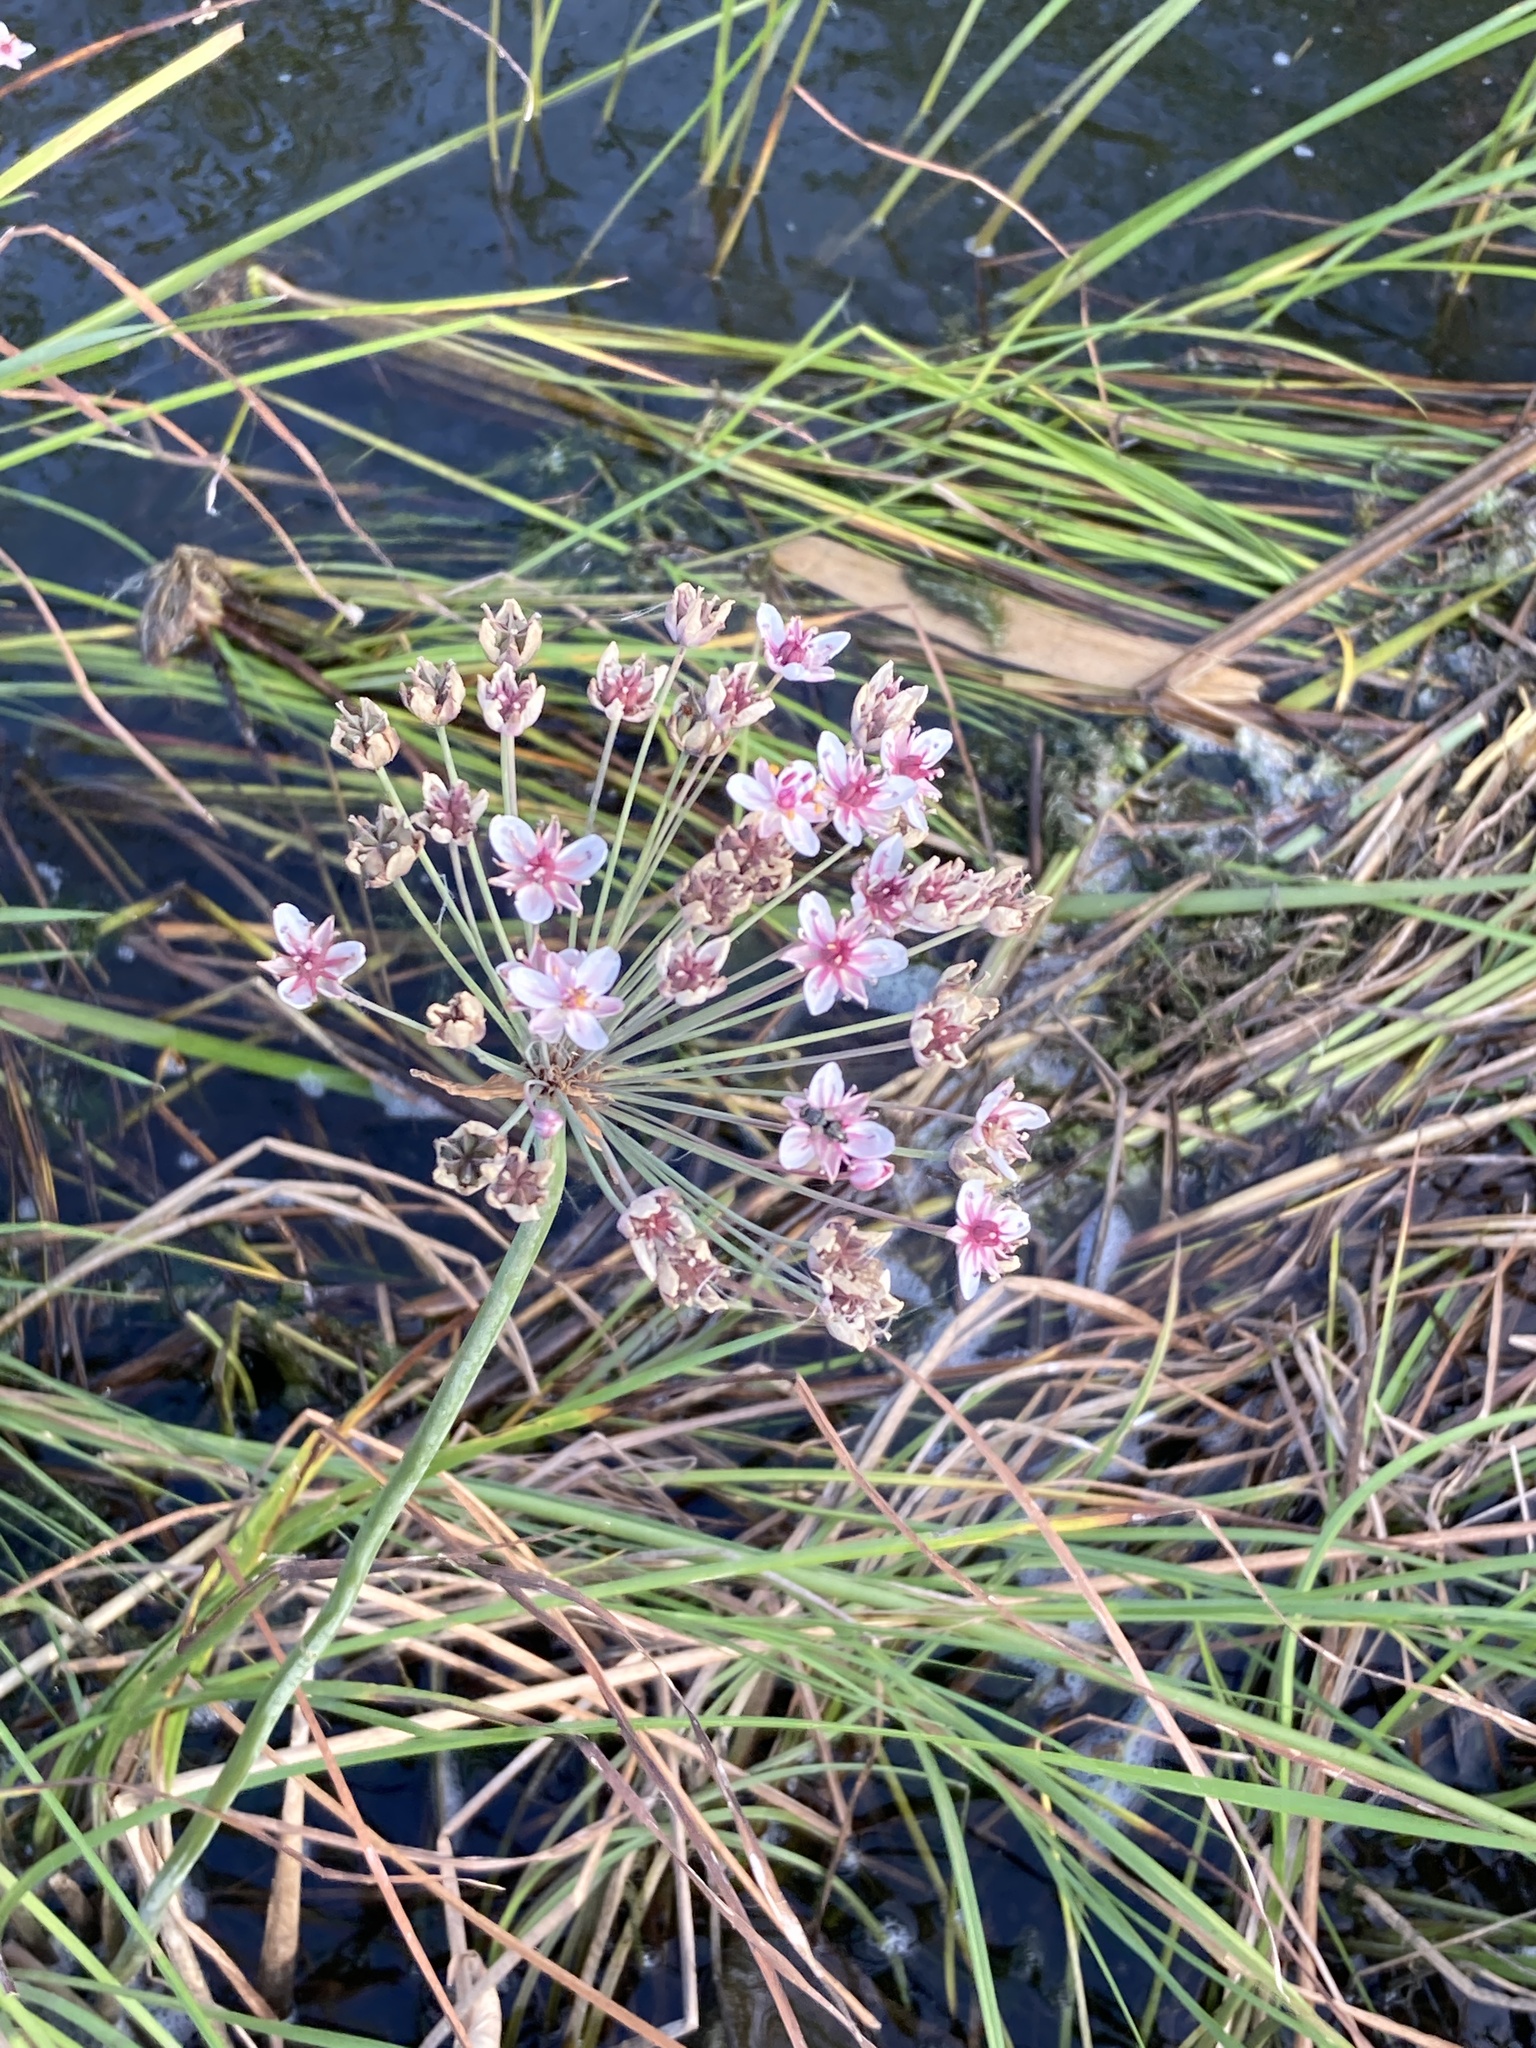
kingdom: Plantae
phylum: Tracheophyta
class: Liliopsida
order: Alismatales
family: Butomaceae
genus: Butomus
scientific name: Butomus umbellatus
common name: Flowering-rush
